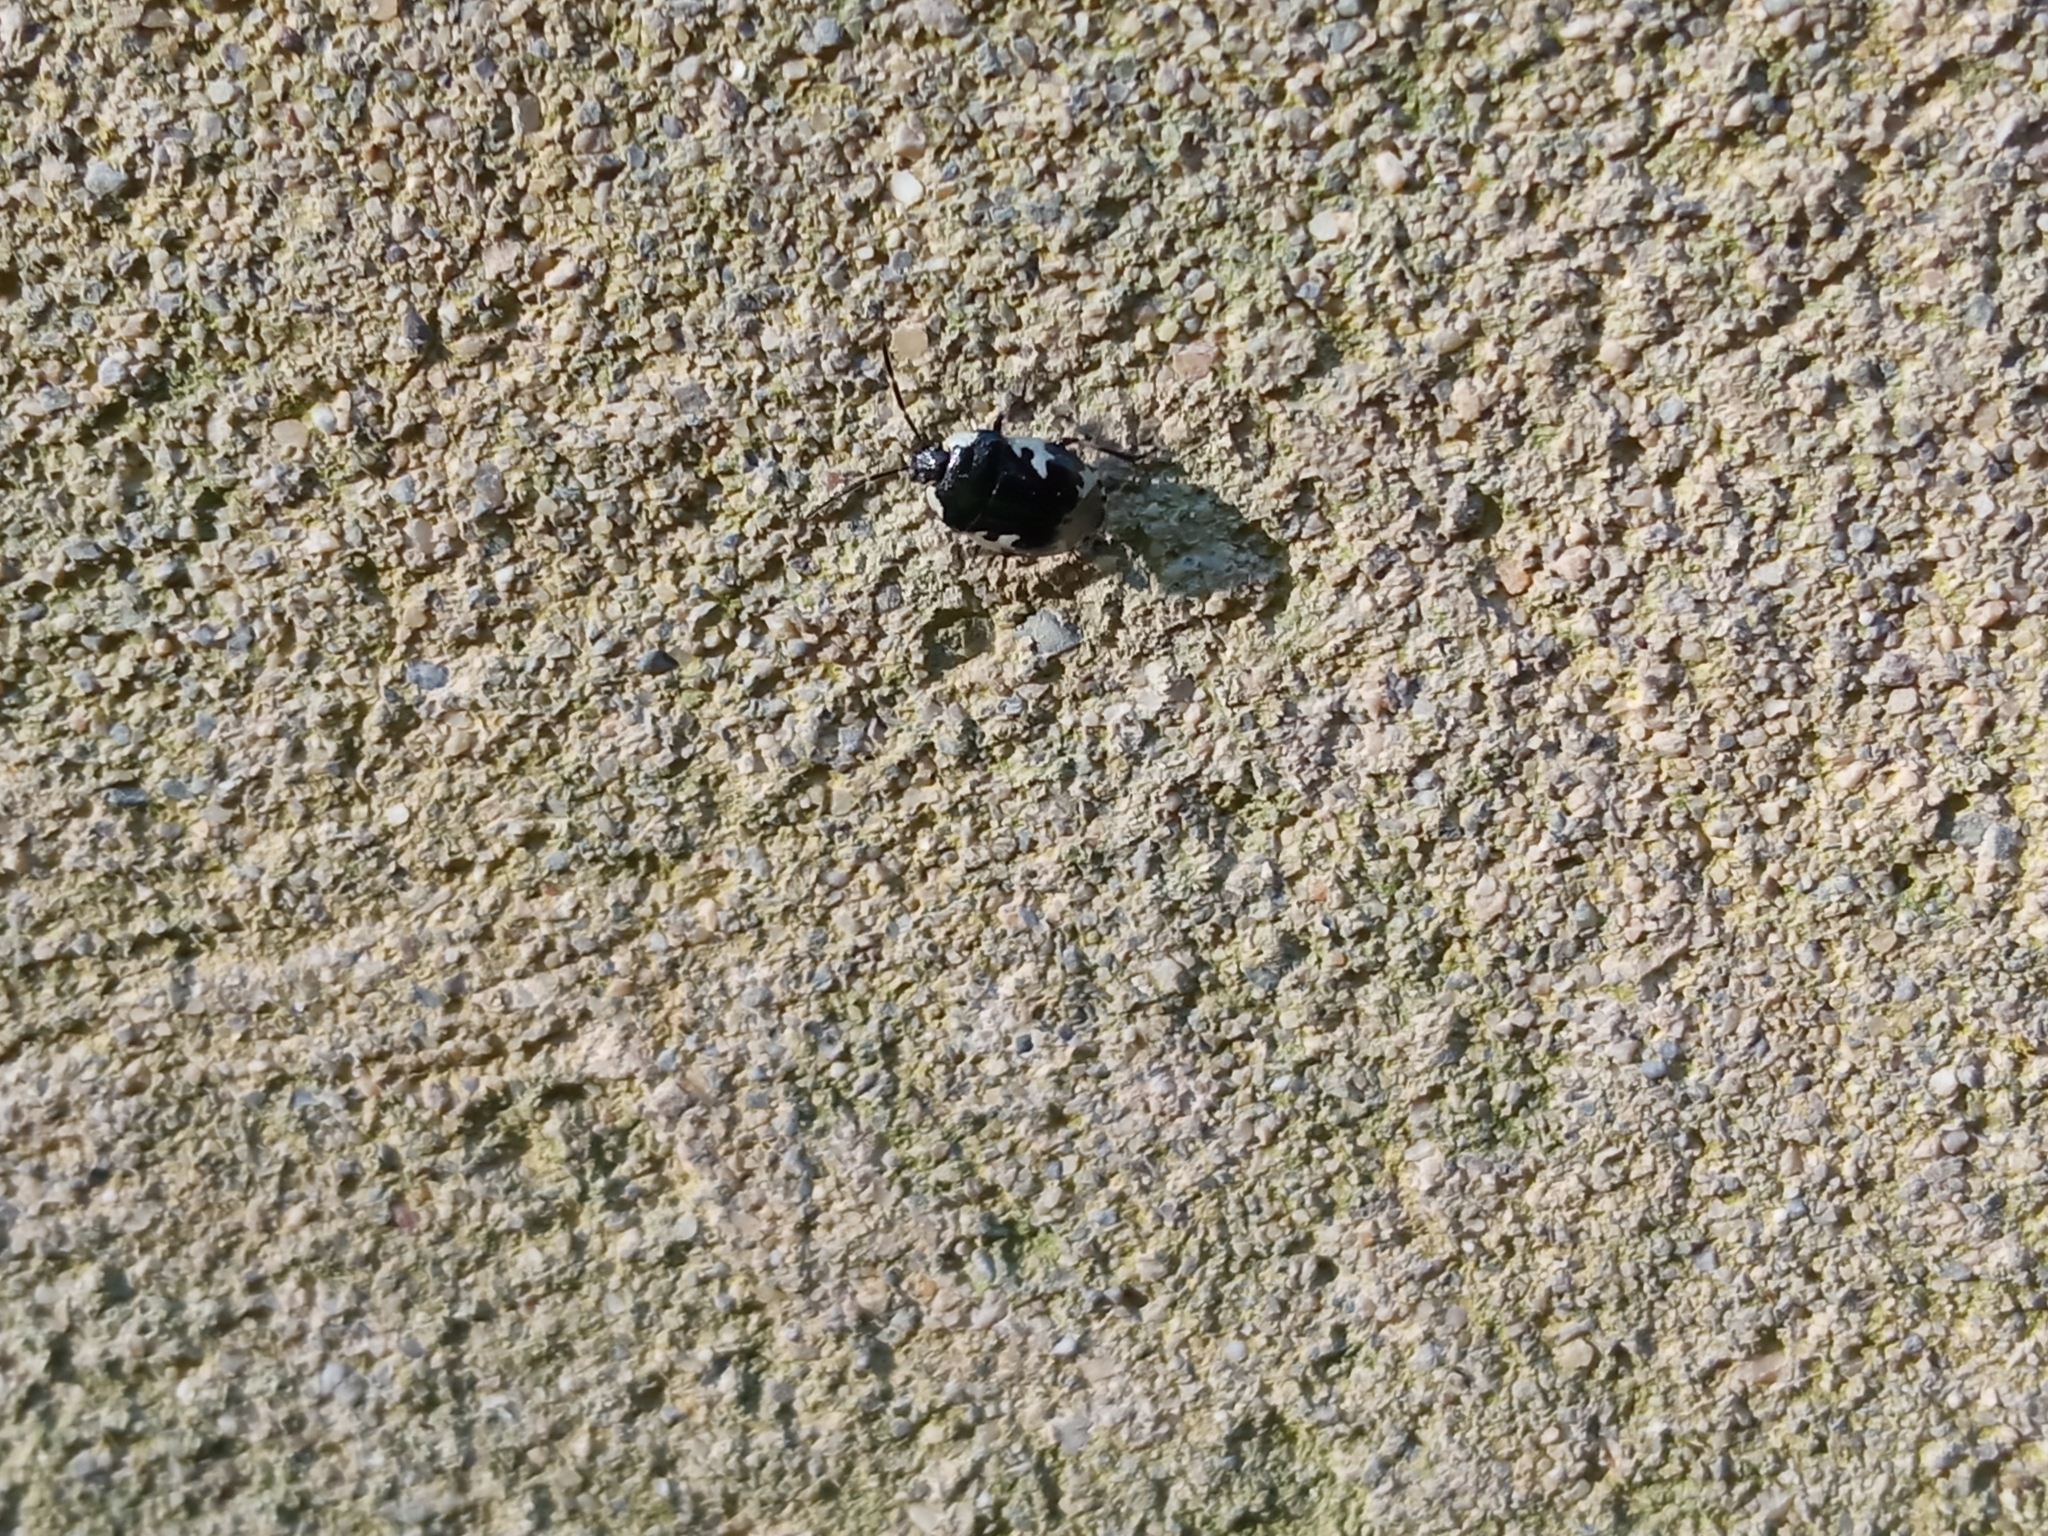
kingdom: Animalia
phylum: Arthropoda
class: Insecta
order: Hemiptera
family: Cydnidae
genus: Tritomegas
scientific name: Tritomegas bicolor
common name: Pied shieldbug
